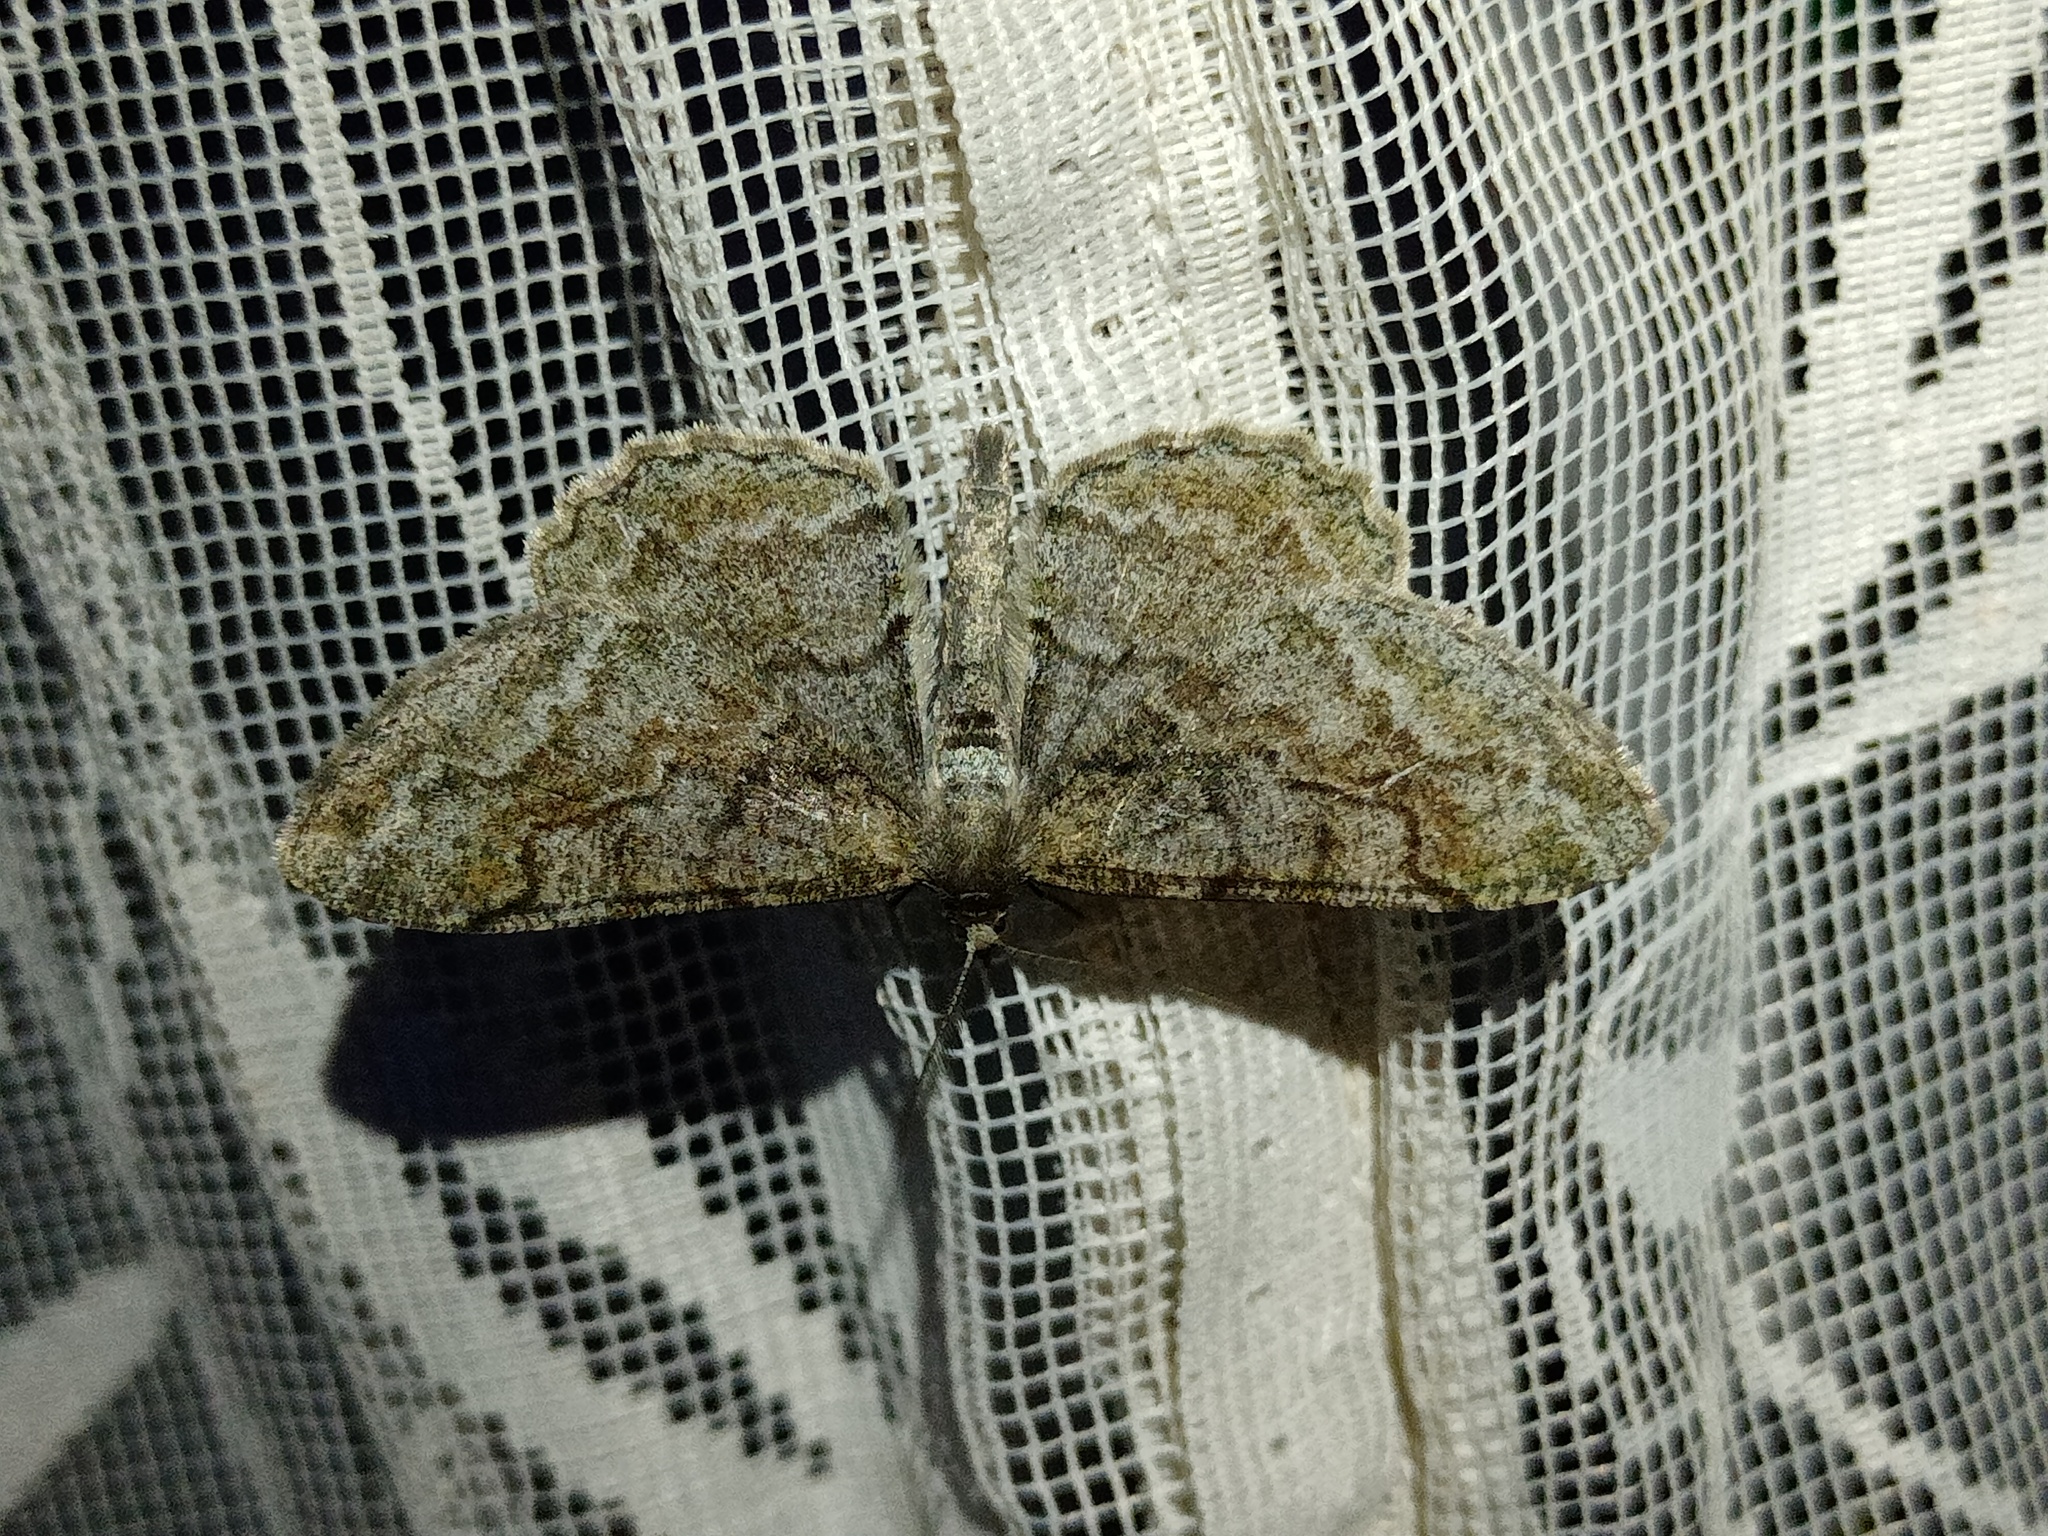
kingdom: Animalia
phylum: Arthropoda
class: Insecta
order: Lepidoptera
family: Geometridae
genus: Alcis
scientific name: Alcis repandata
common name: Mottled beauty
